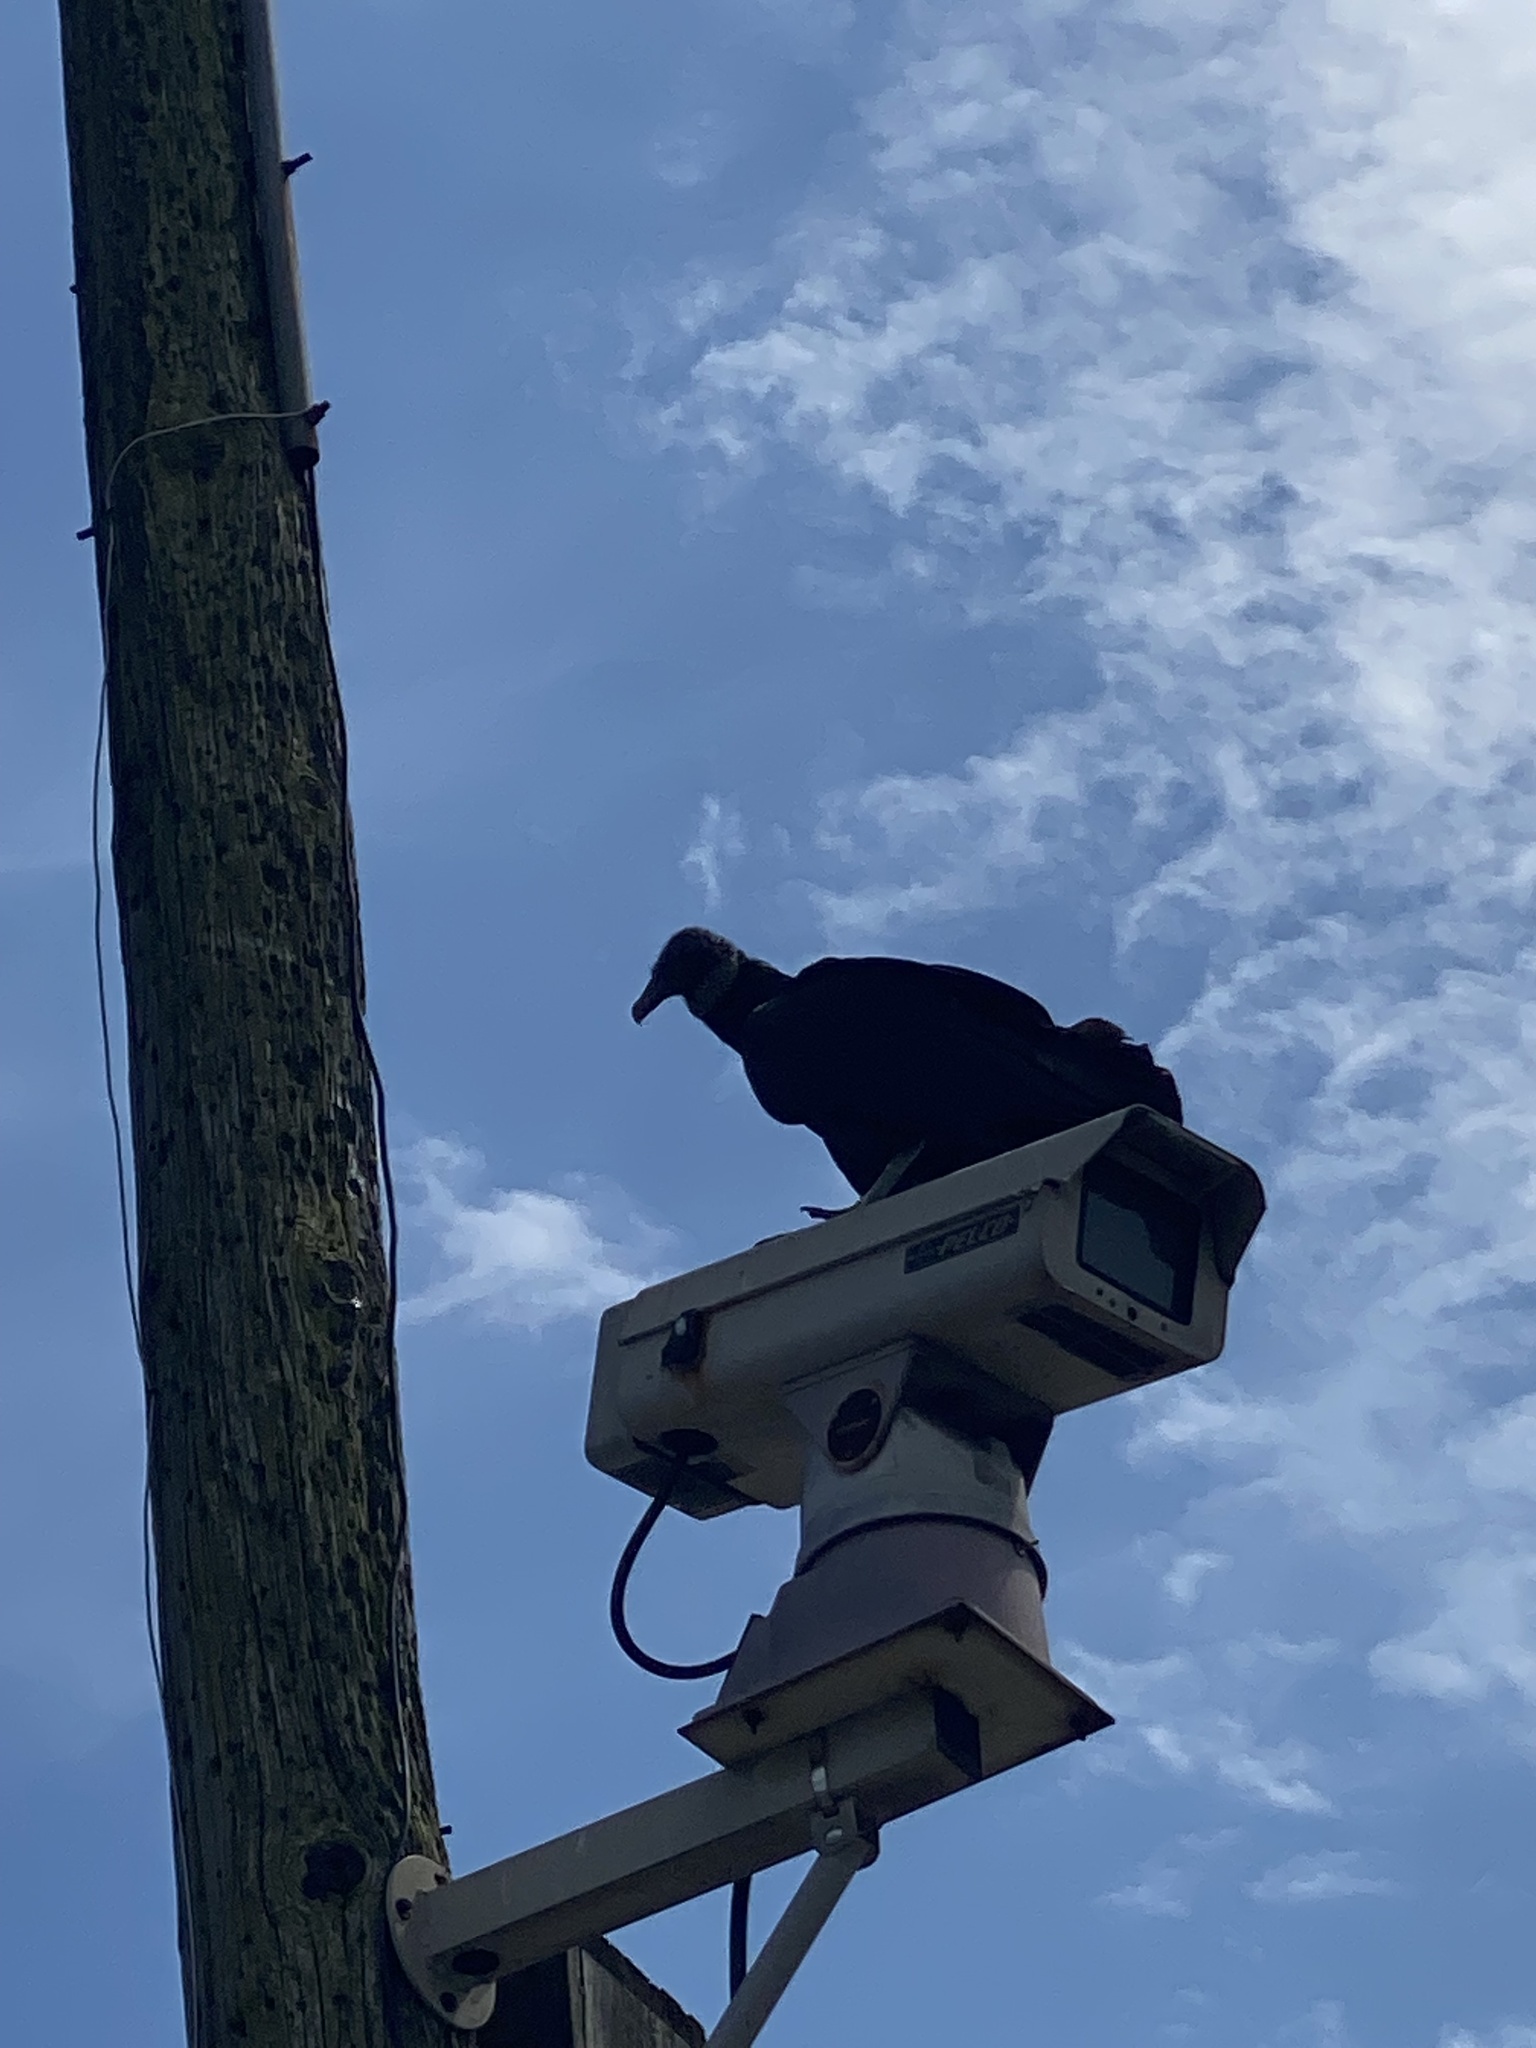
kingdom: Animalia
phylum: Chordata
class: Aves
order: Accipitriformes
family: Cathartidae
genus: Coragyps
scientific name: Coragyps atratus
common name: Black vulture
